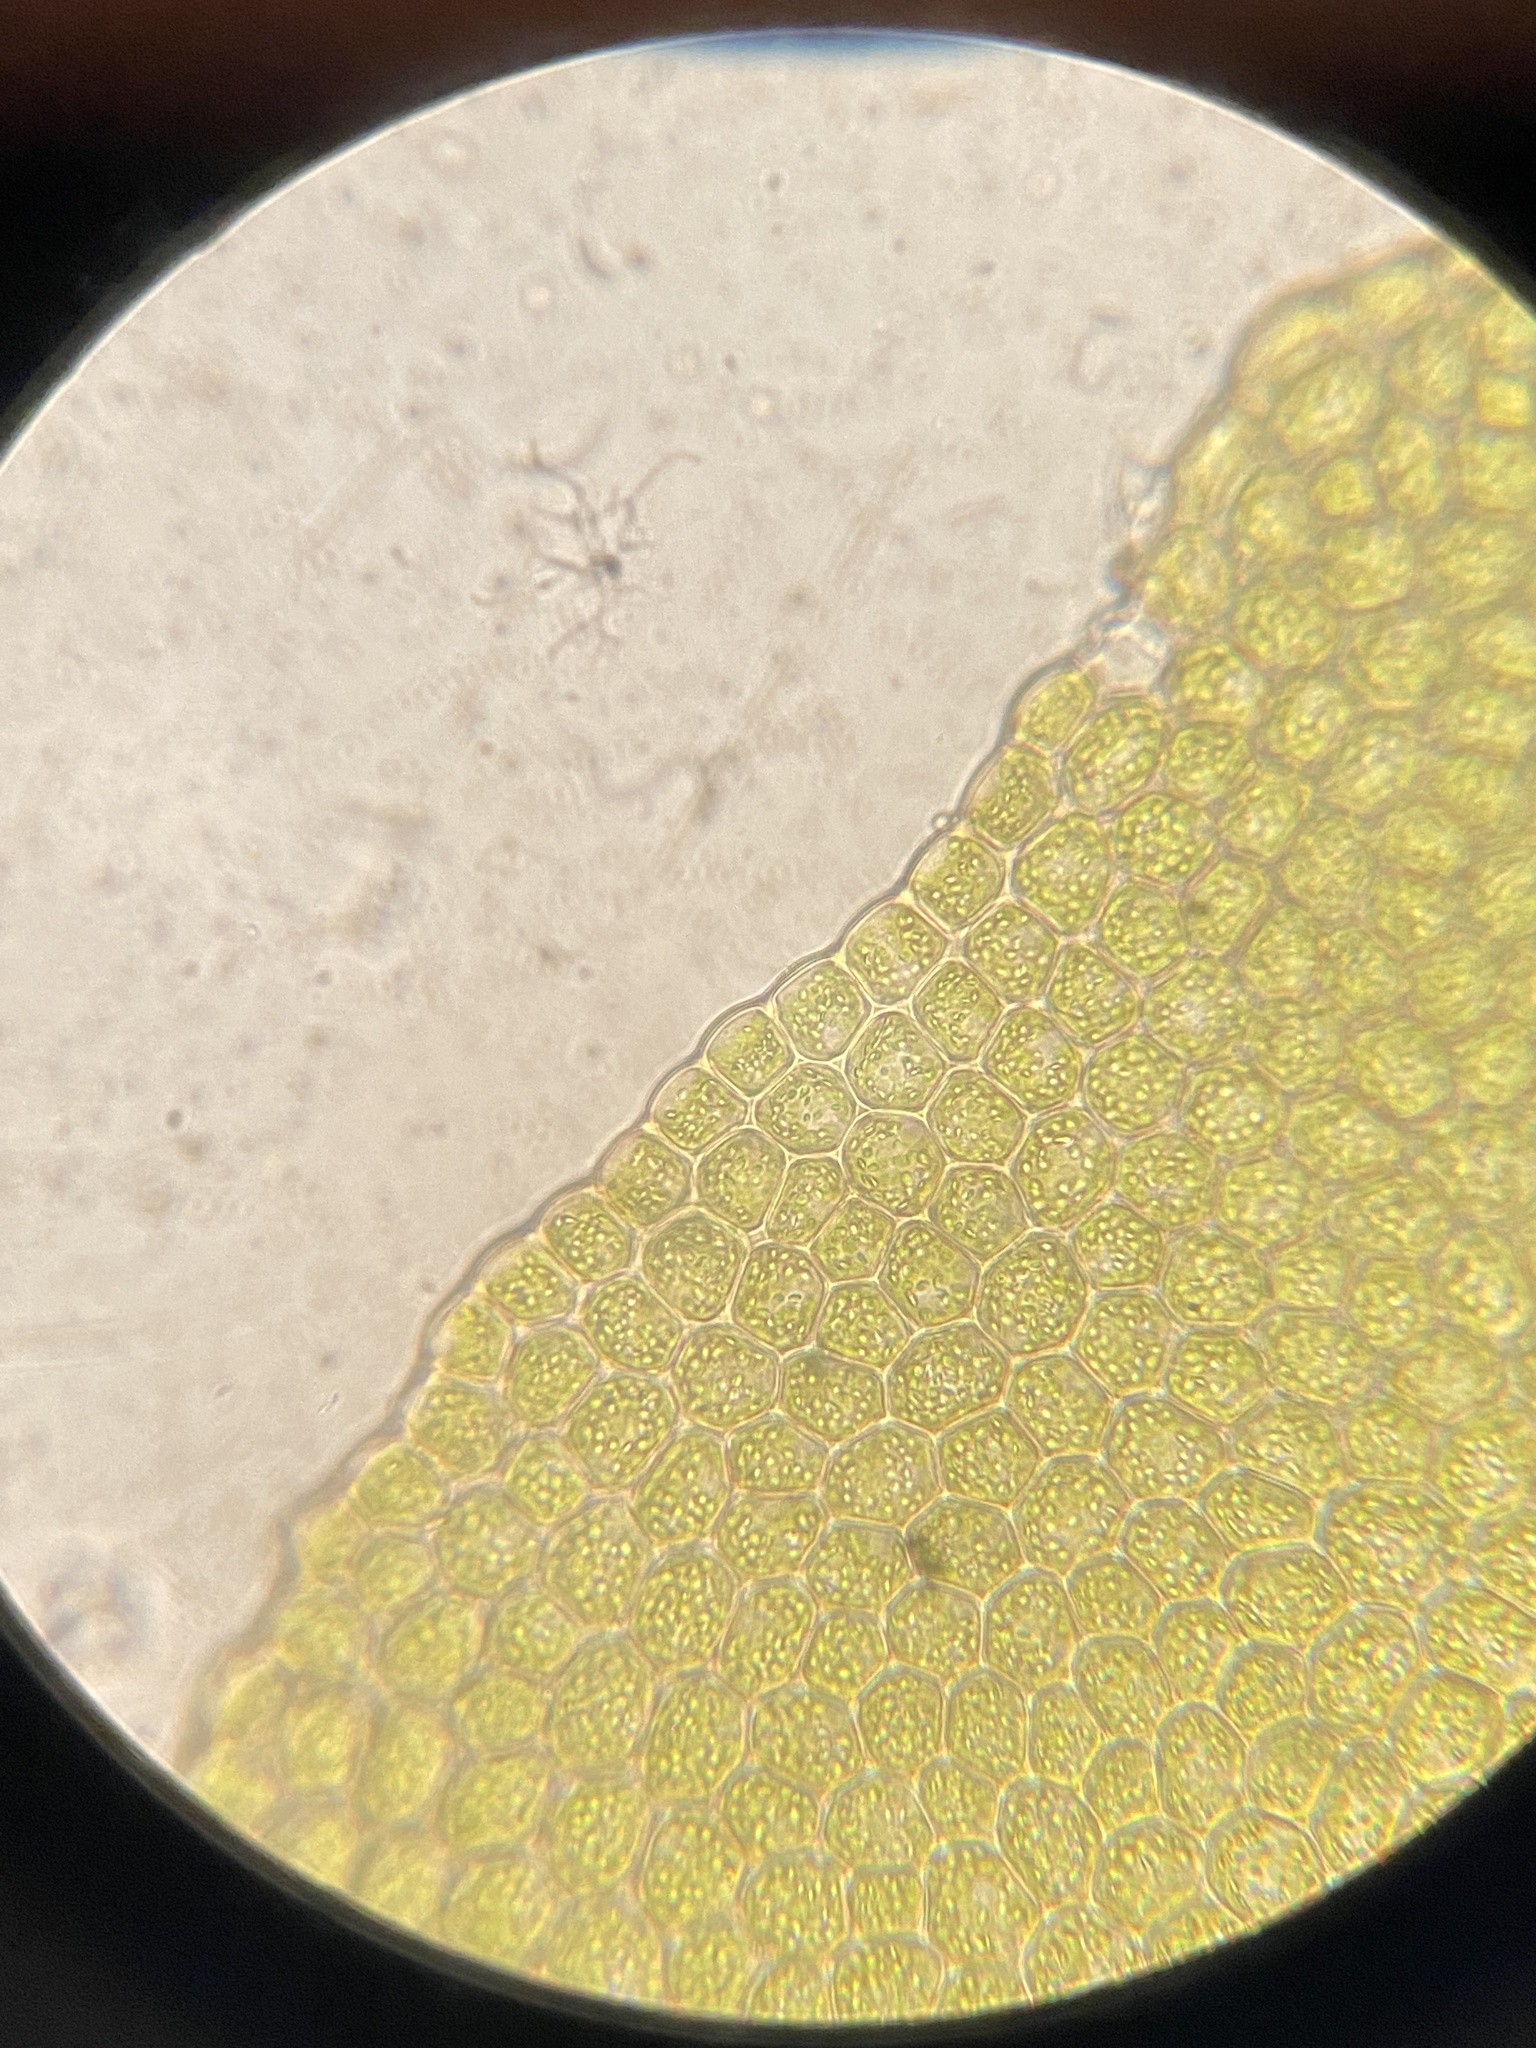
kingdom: Plantae
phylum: Marchantiophyta
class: Jungermanniopsida
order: Porellales
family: Porellaceae
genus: Porella
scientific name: Porella platyphylla
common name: Wall scalewort
